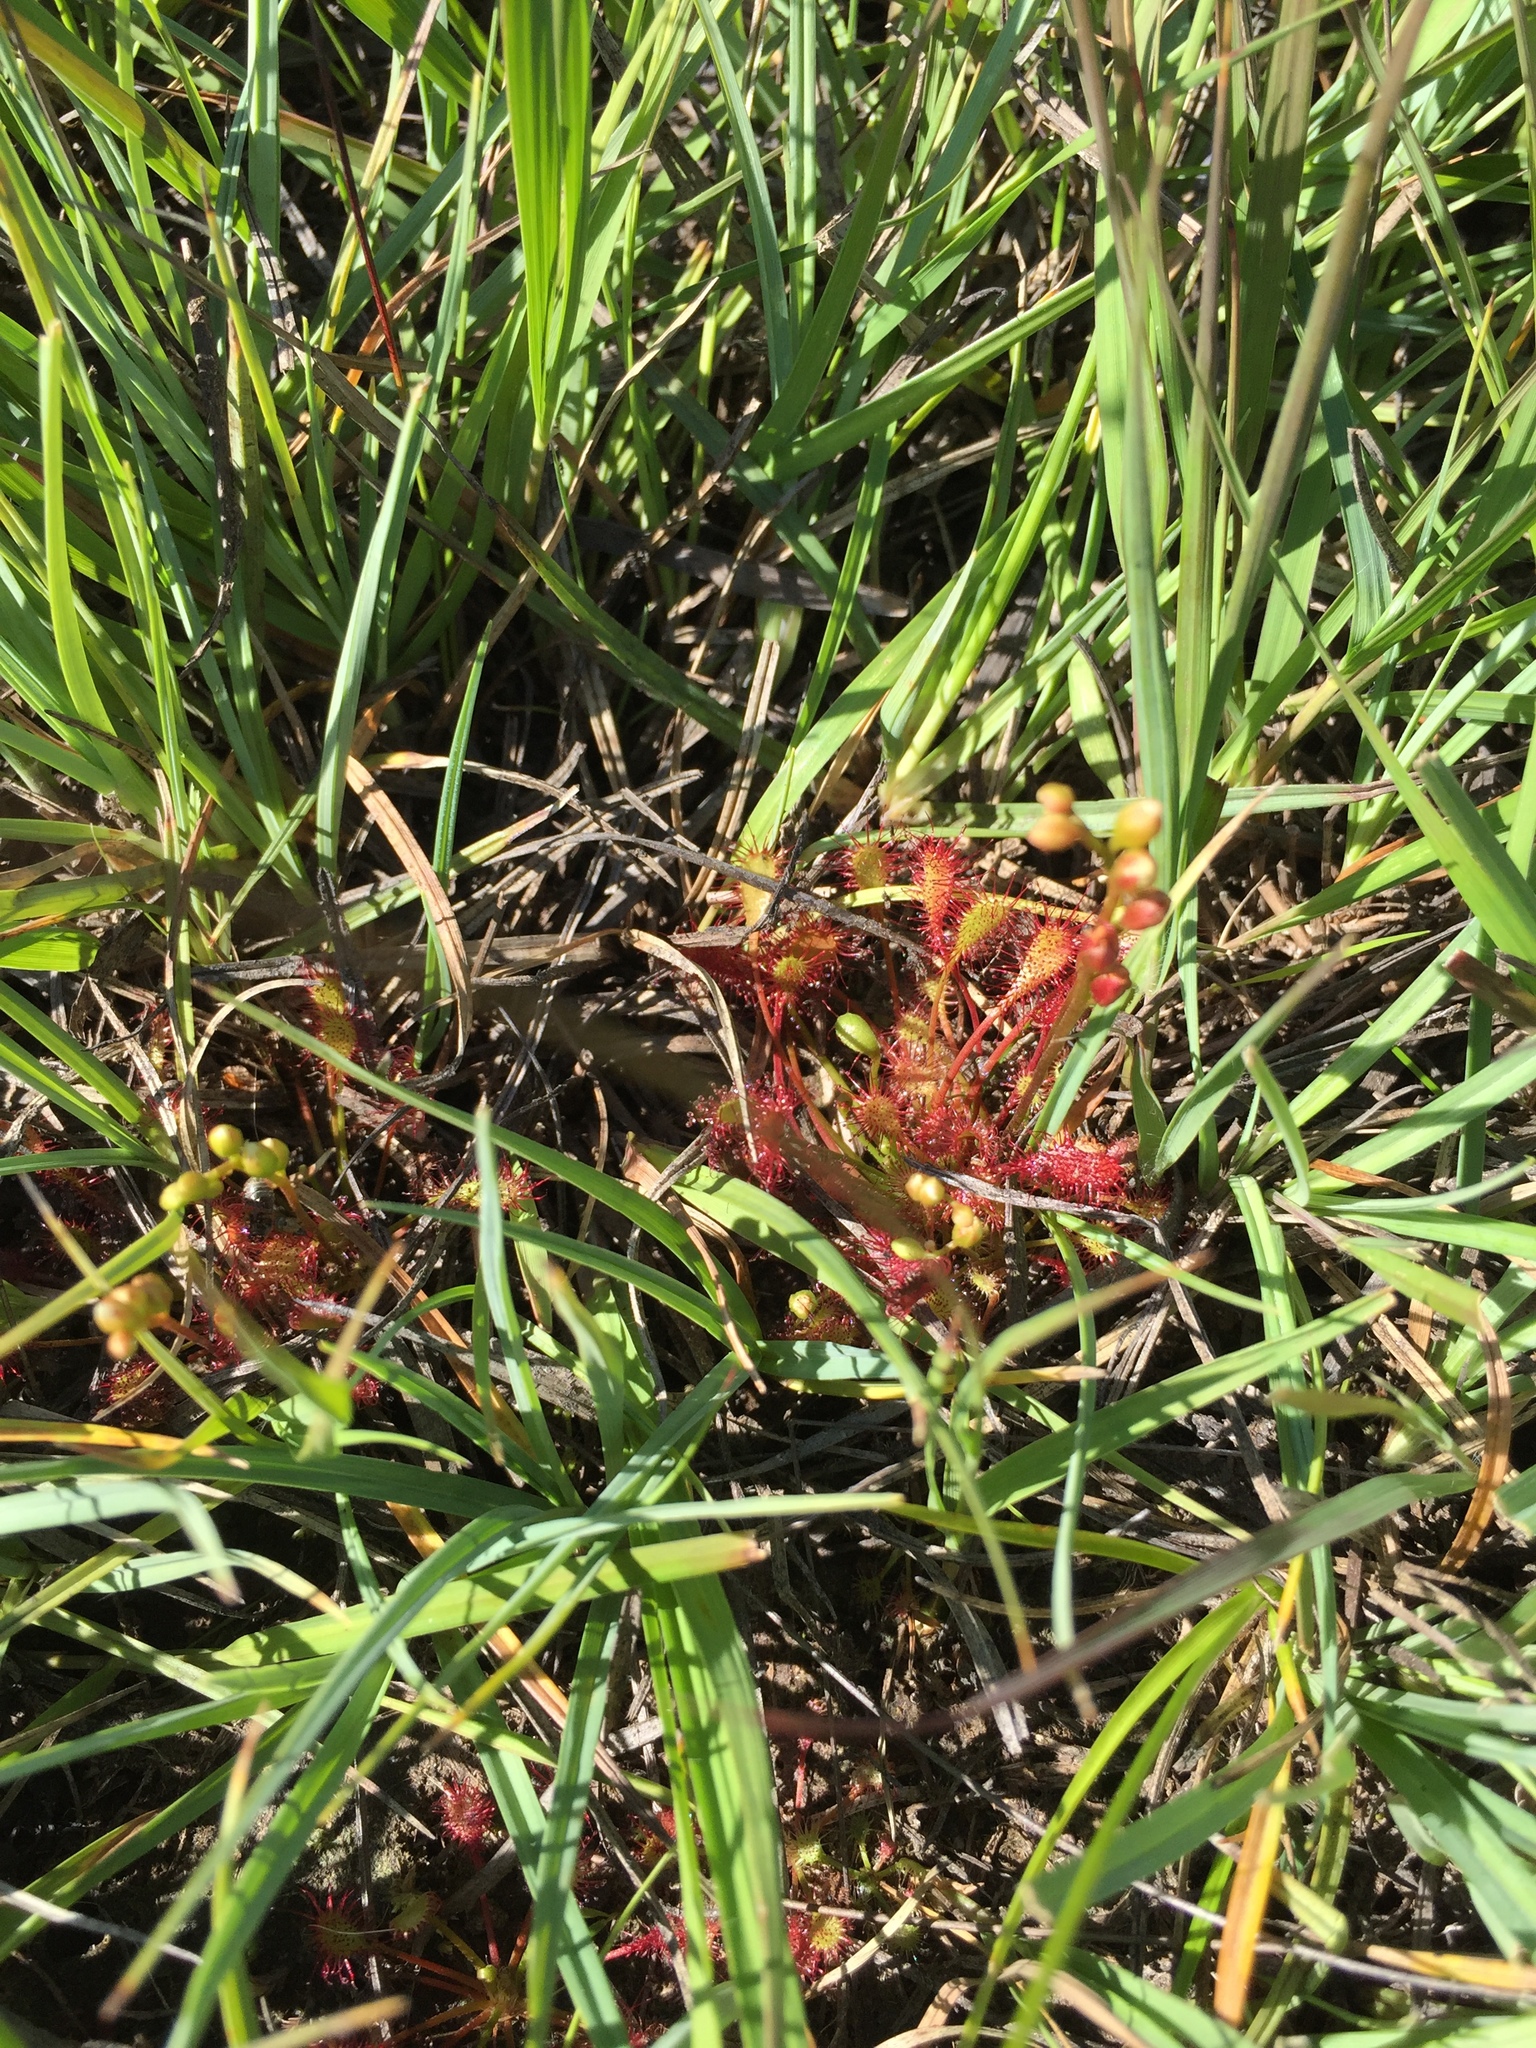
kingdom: Plantae
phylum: Tracheophyta
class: Magnoliopsida
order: Caryophyllales
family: Droseraceae
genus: Drosera
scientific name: Drosera intermedia
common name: Oblong-leaved sundew
